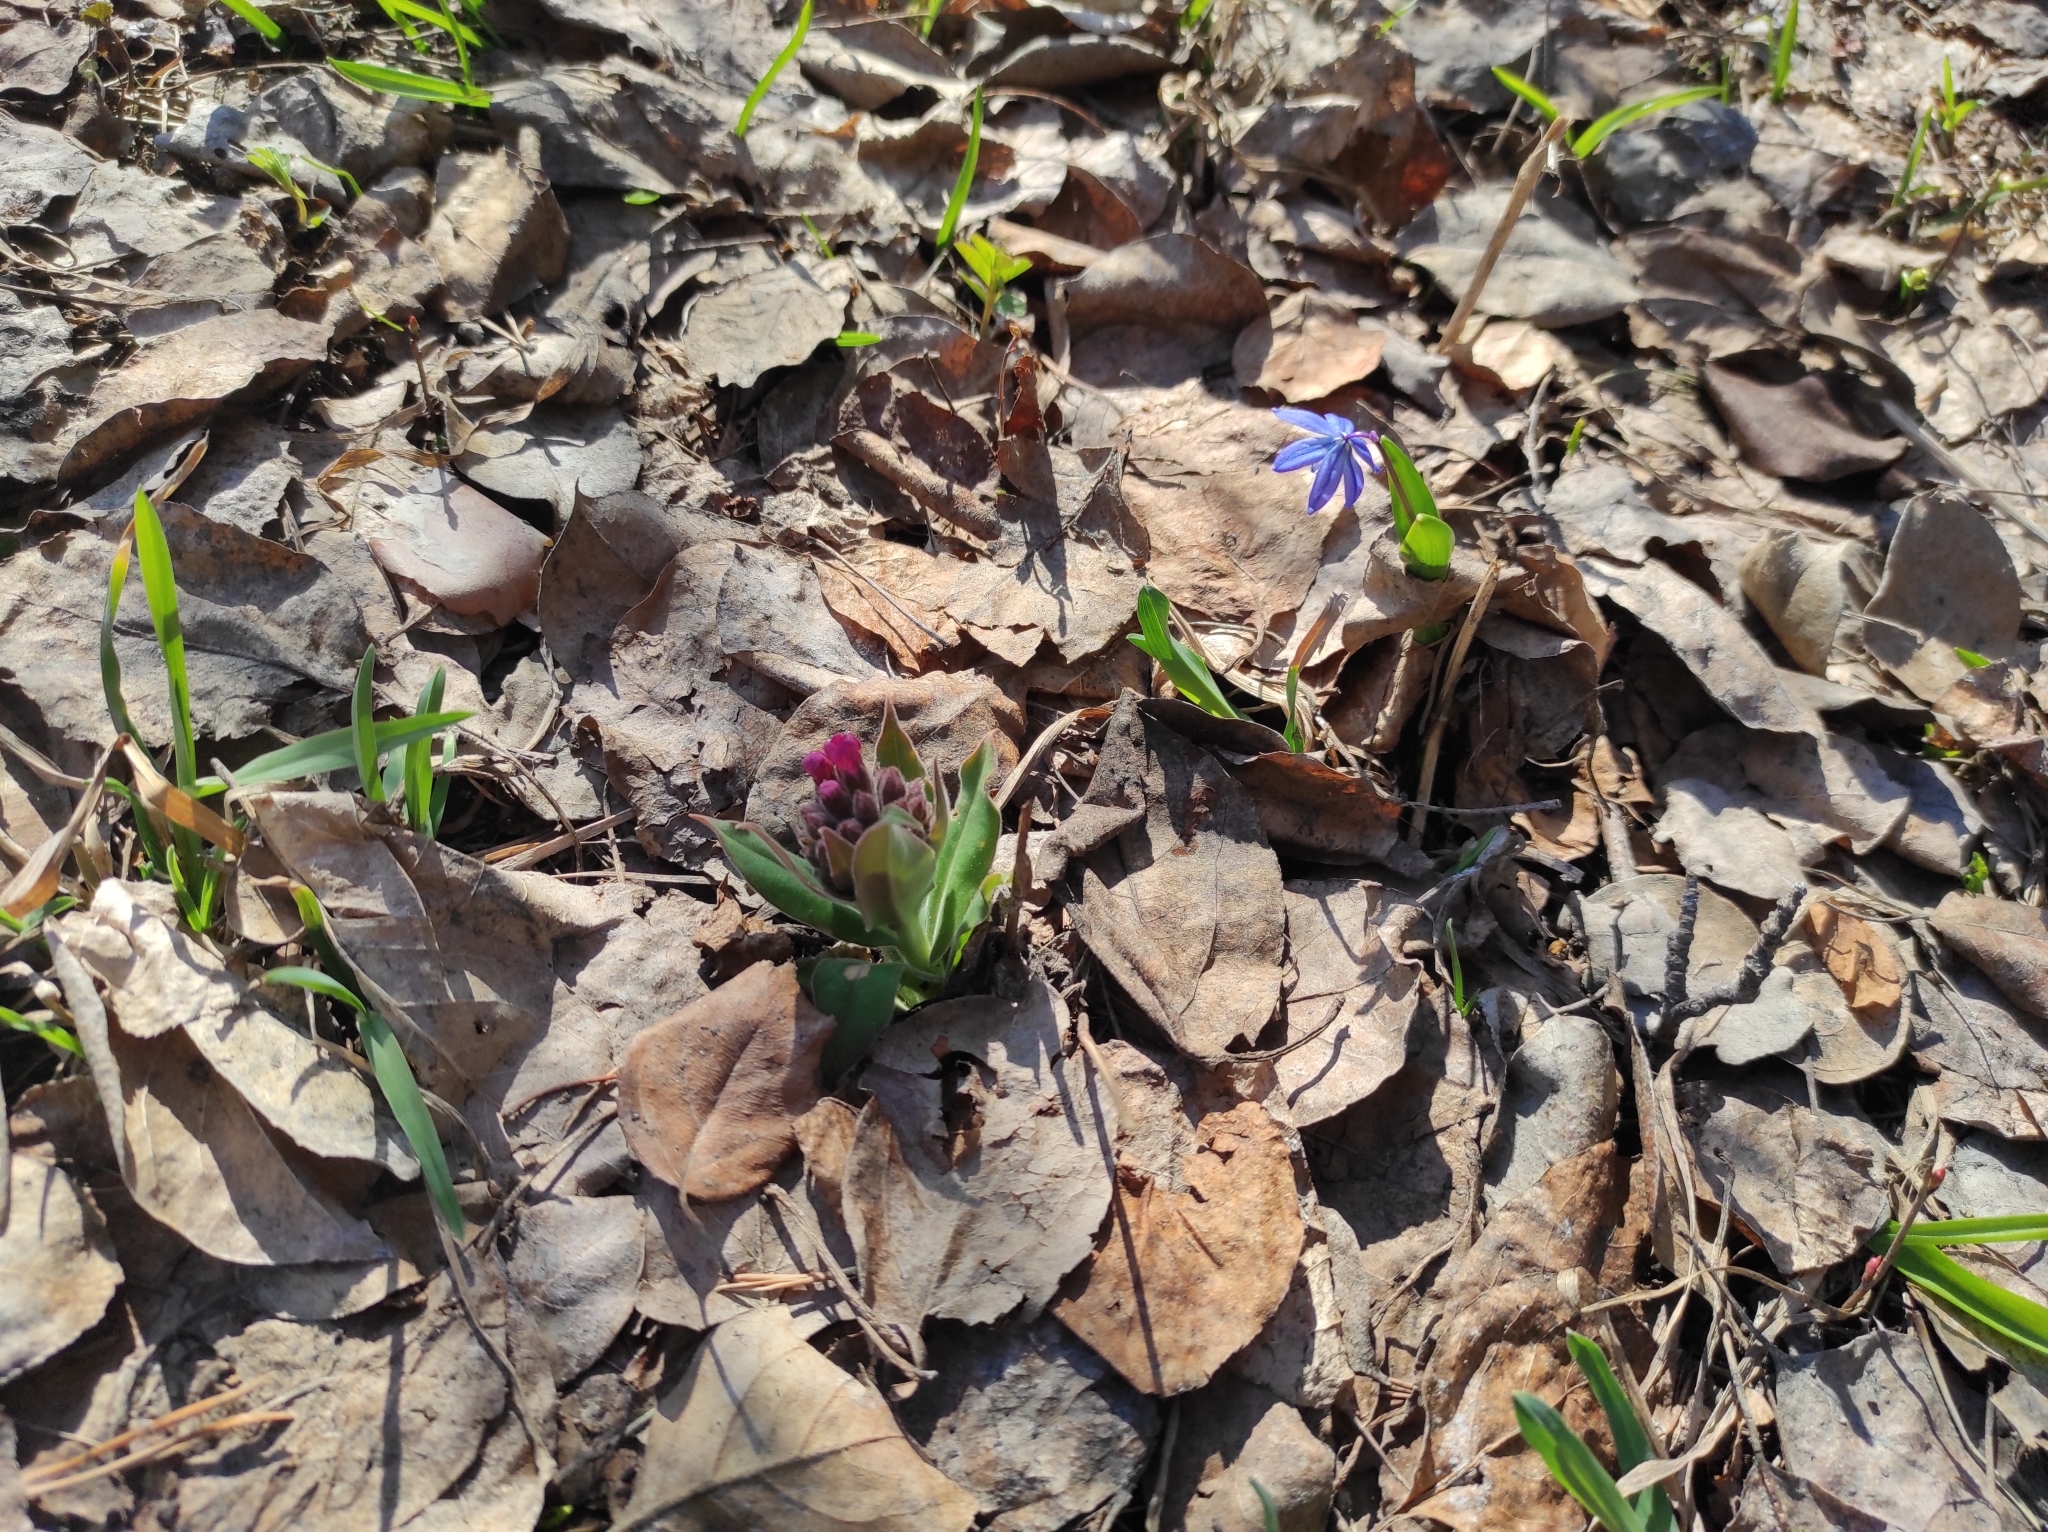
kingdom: Plantae
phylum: Tracheophyta
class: Magnoliopsida
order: Boraginales
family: Boraginaceae
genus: Pulmonaria
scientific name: Pulmonaria mollis
